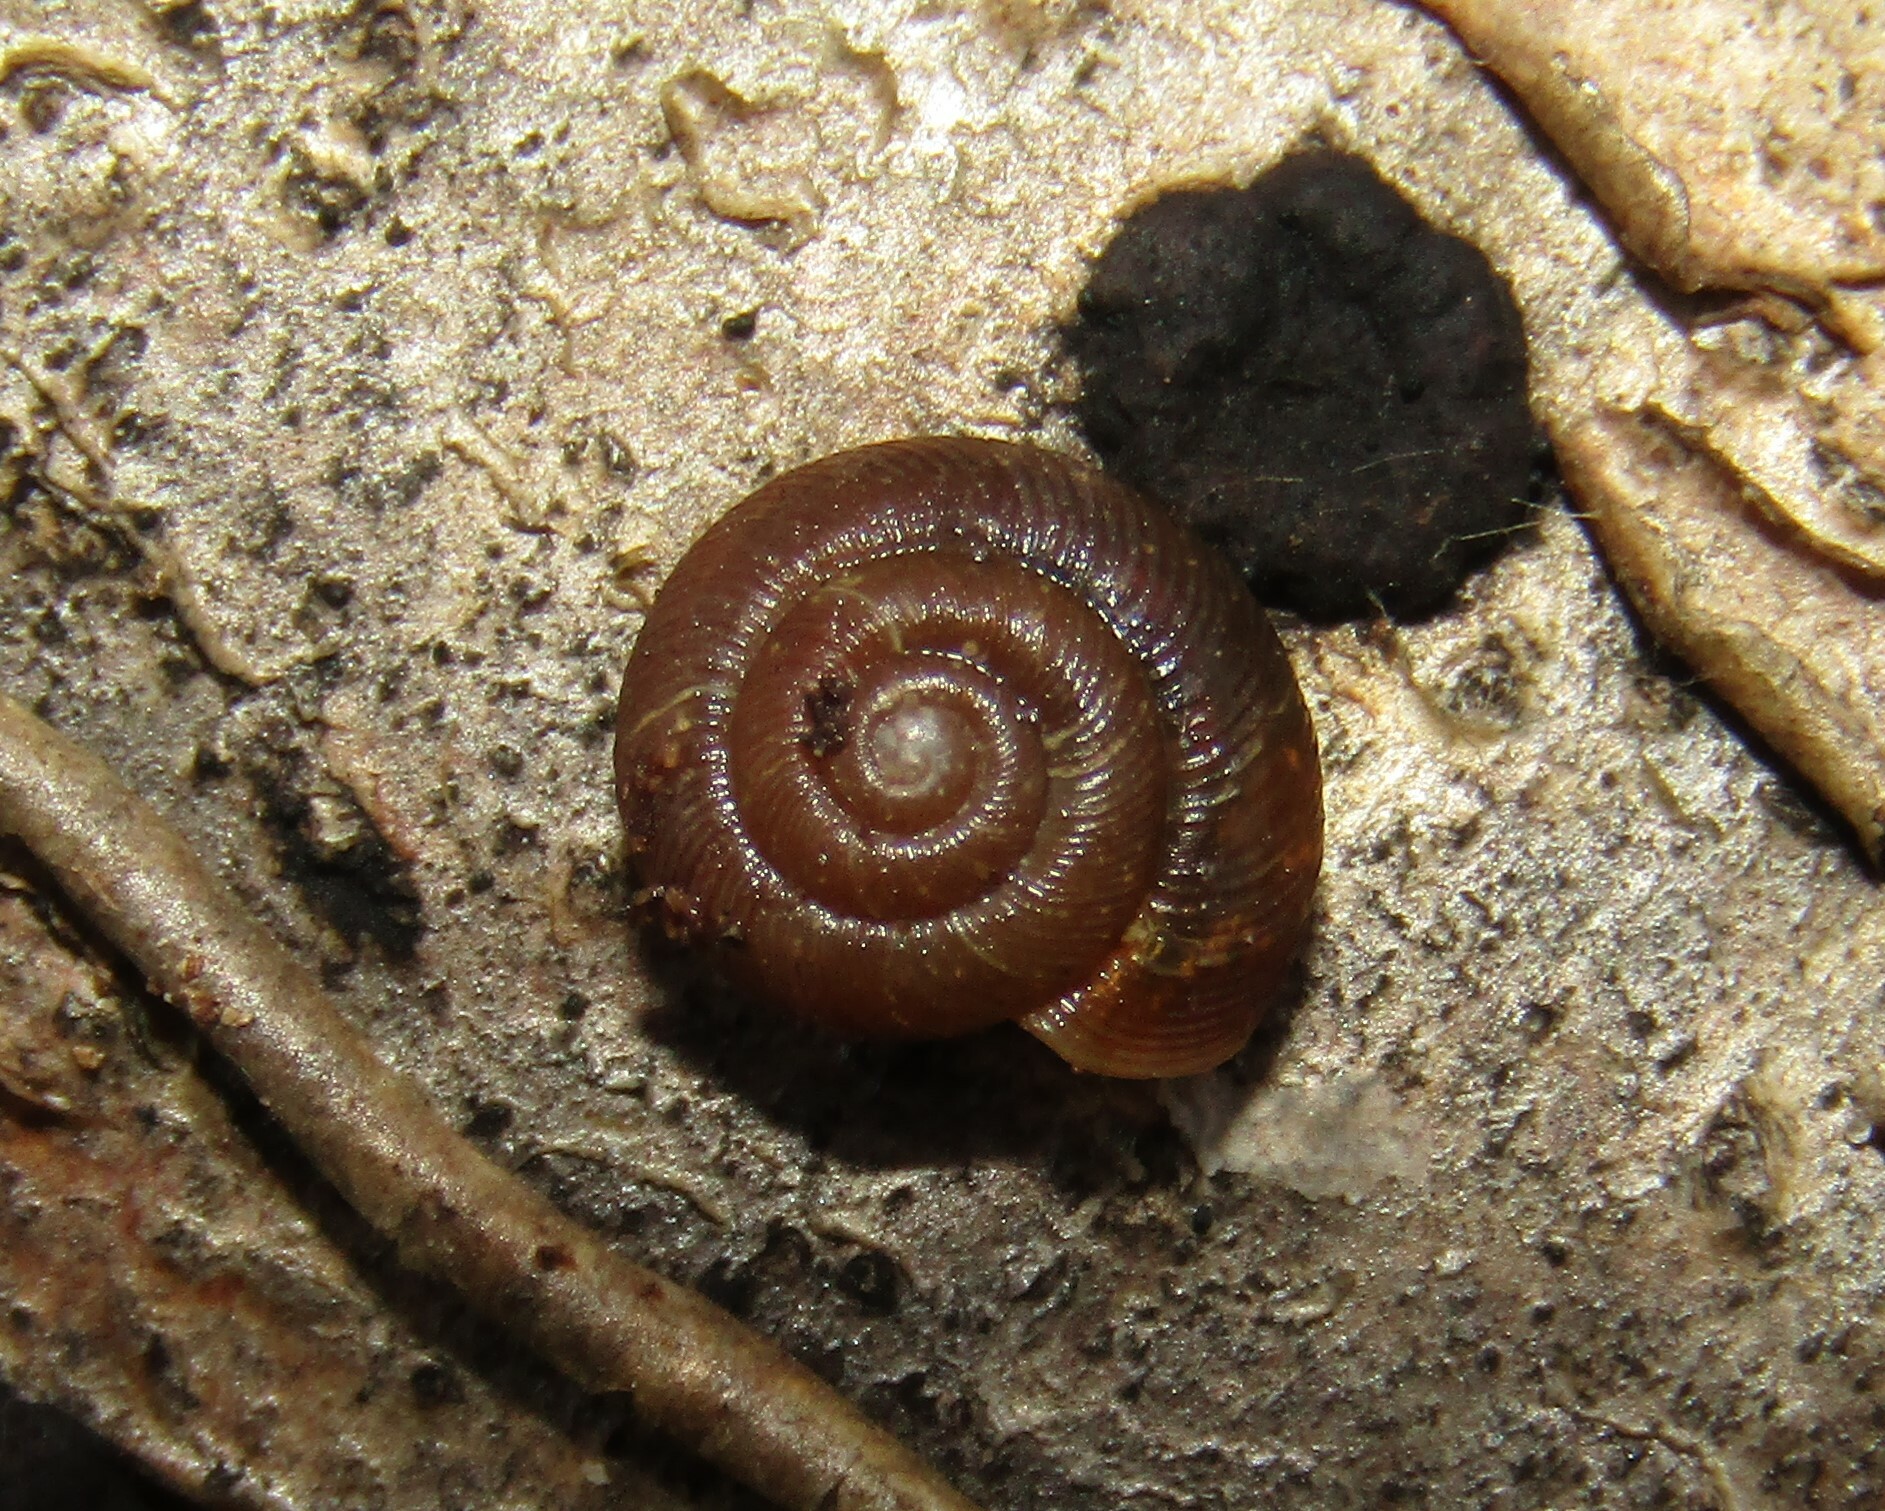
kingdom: Animalia
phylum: Mollusca
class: Gastropoda
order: Stylommatophora
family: Discidae
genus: Discus
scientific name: Discus ruderatus
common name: Brown disc snail
